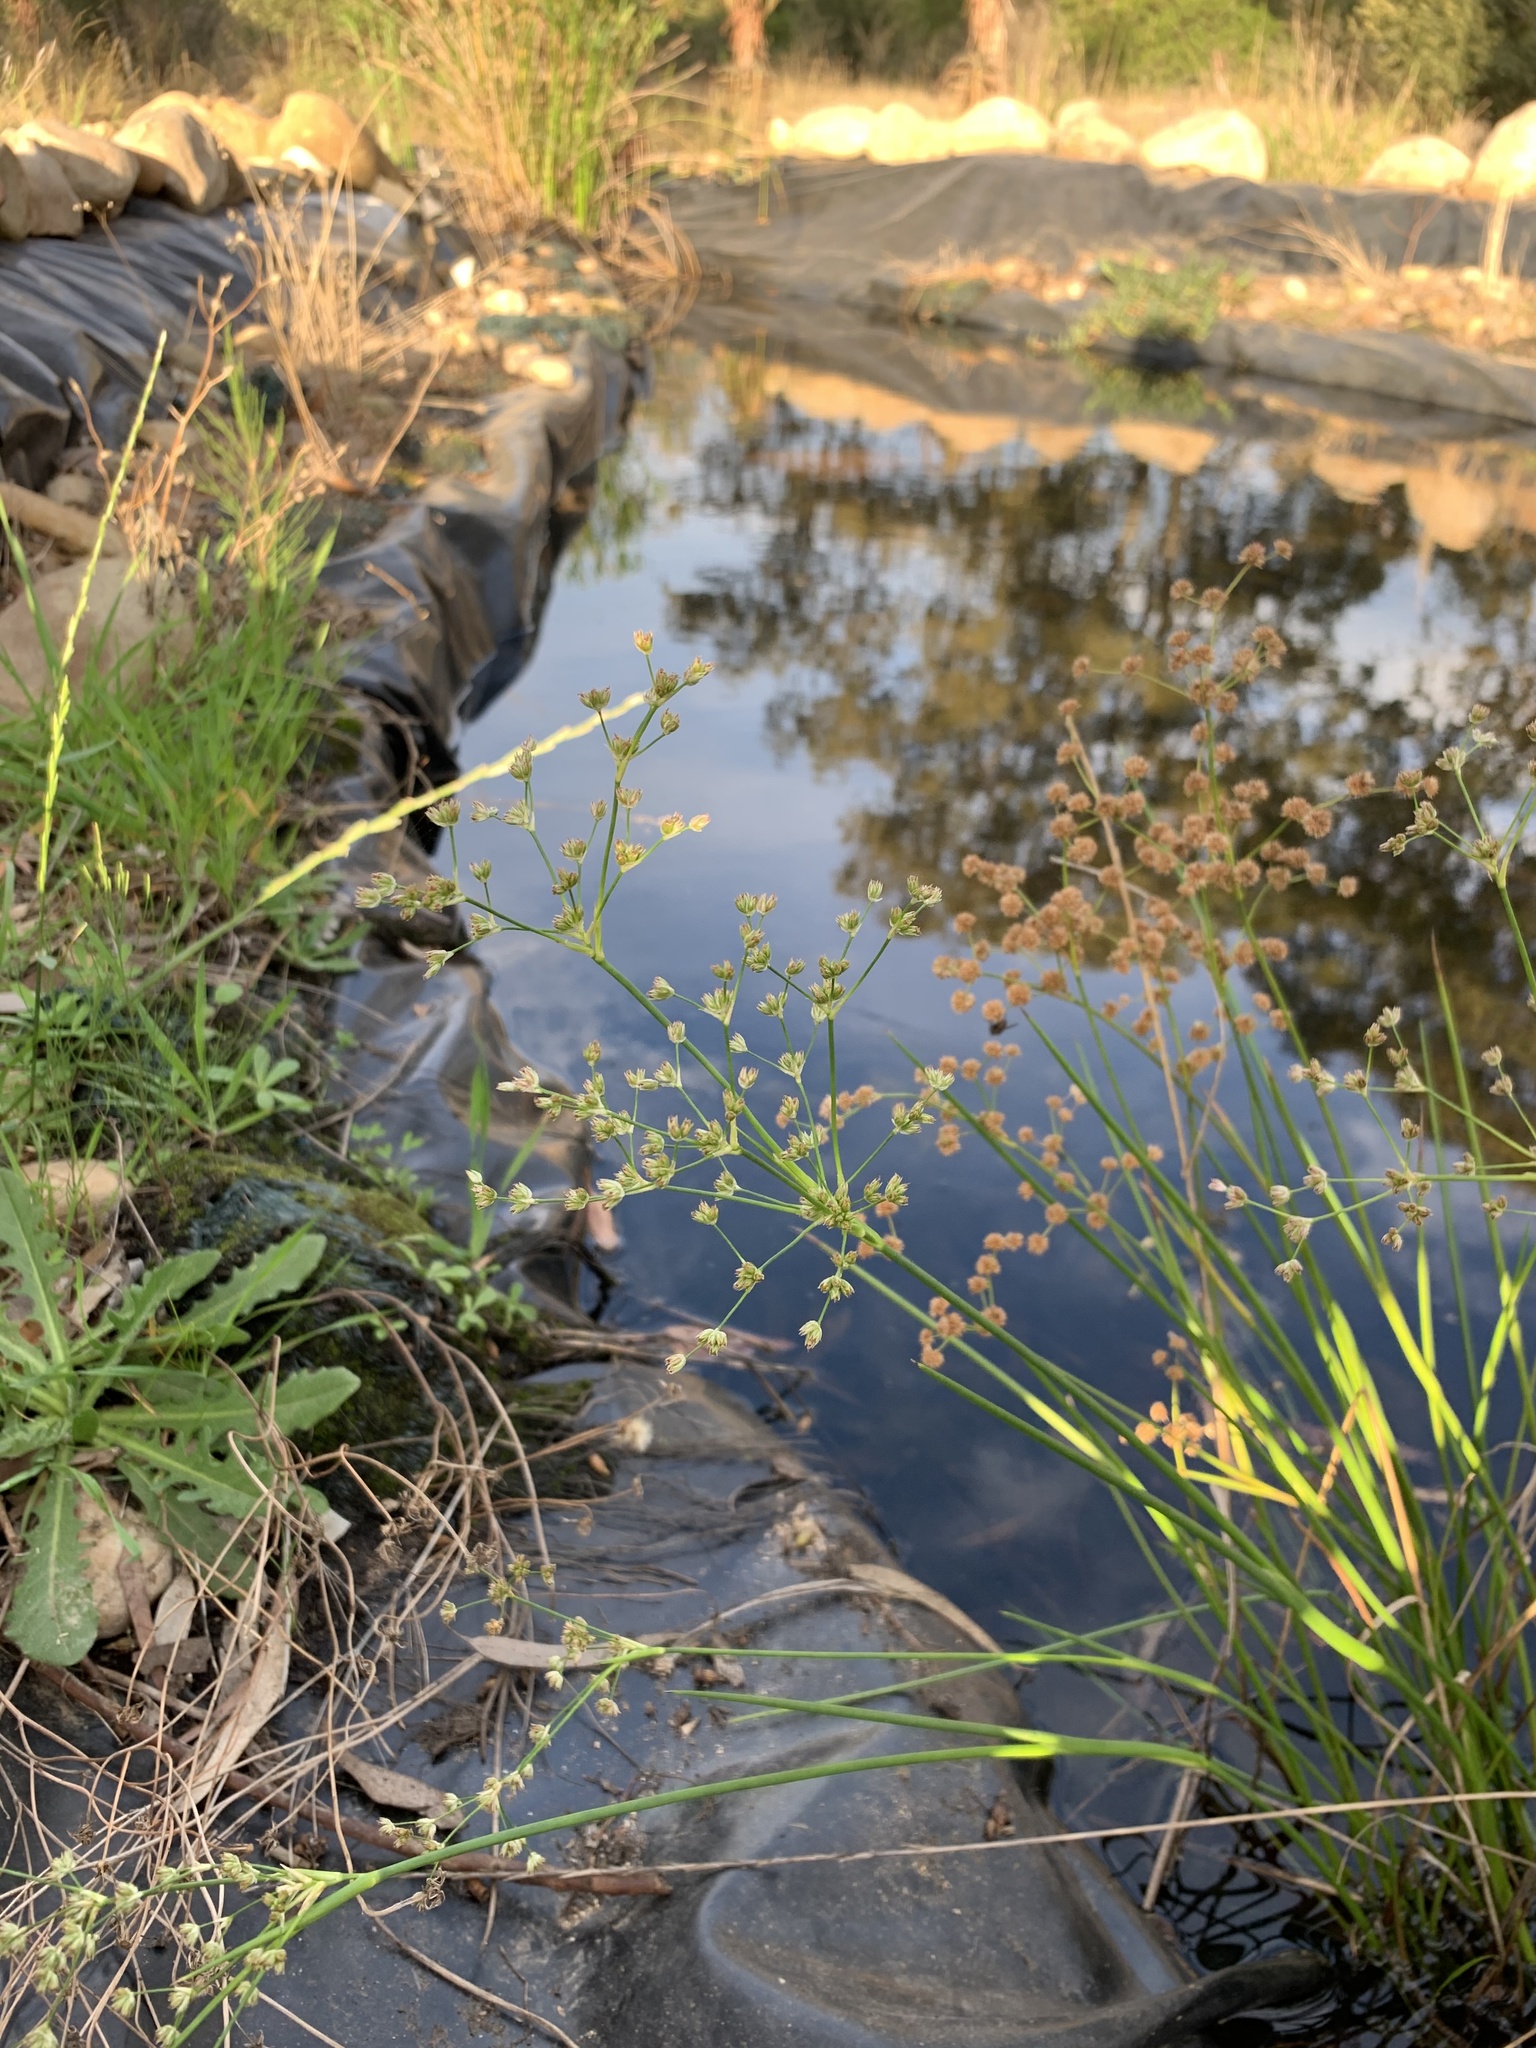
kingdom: Plantae
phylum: Tracheophyta
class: Liliopsida
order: Poales
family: Juncaceae
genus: Juncus
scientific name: Juncus oxycarpus
